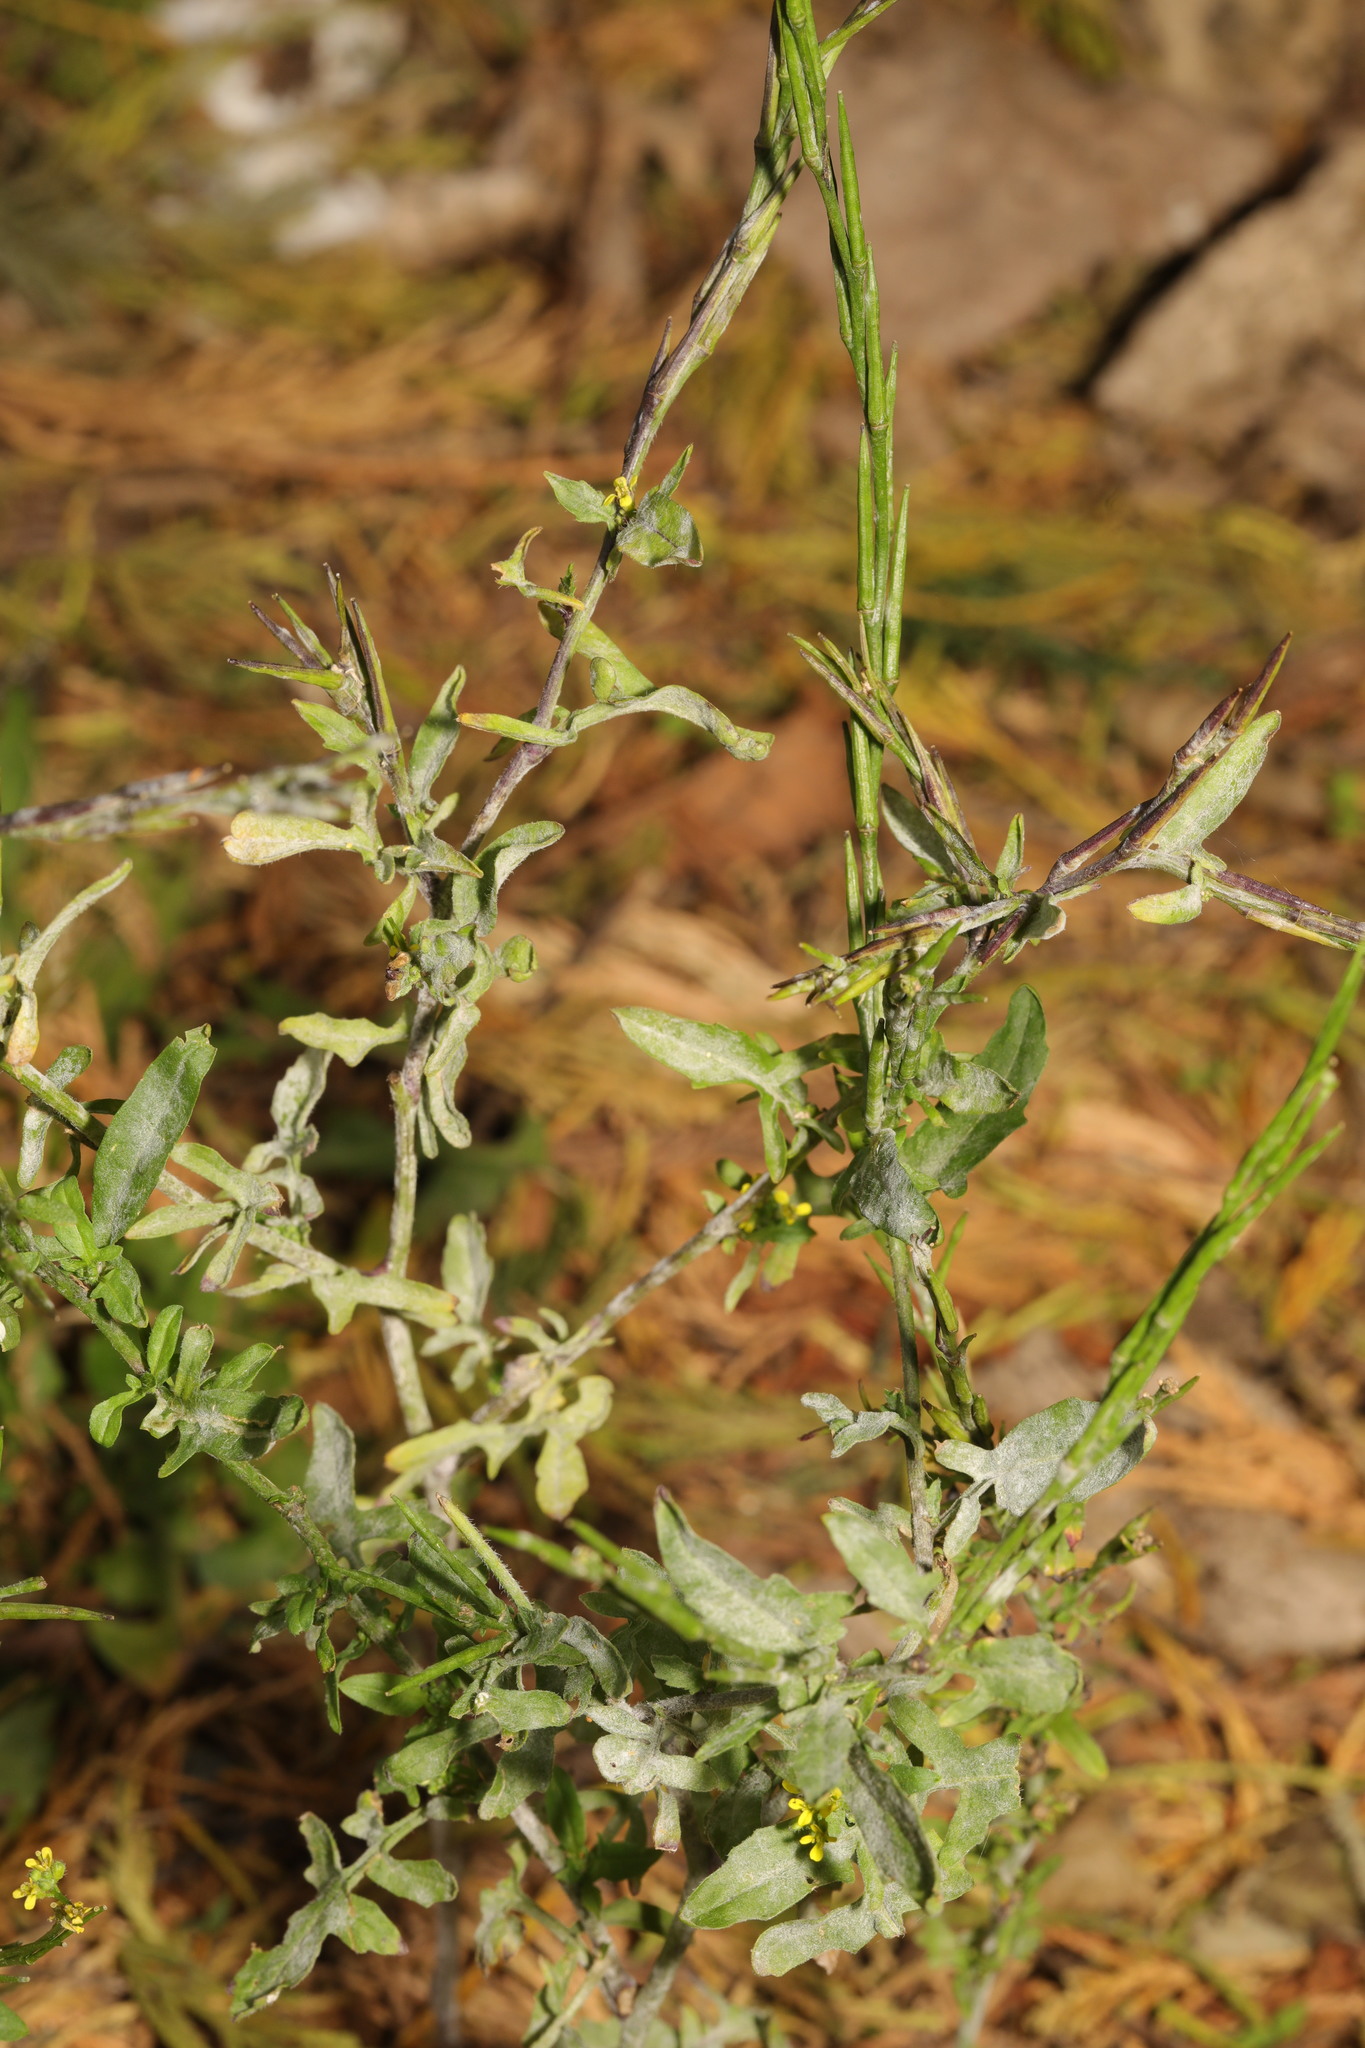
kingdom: Plantae
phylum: Tracheophyta
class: Magnoliopsida
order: Brassicales
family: Brassicaceae
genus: Sisymbrium
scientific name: Sisymbrium officinale
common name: Hedge mustard
